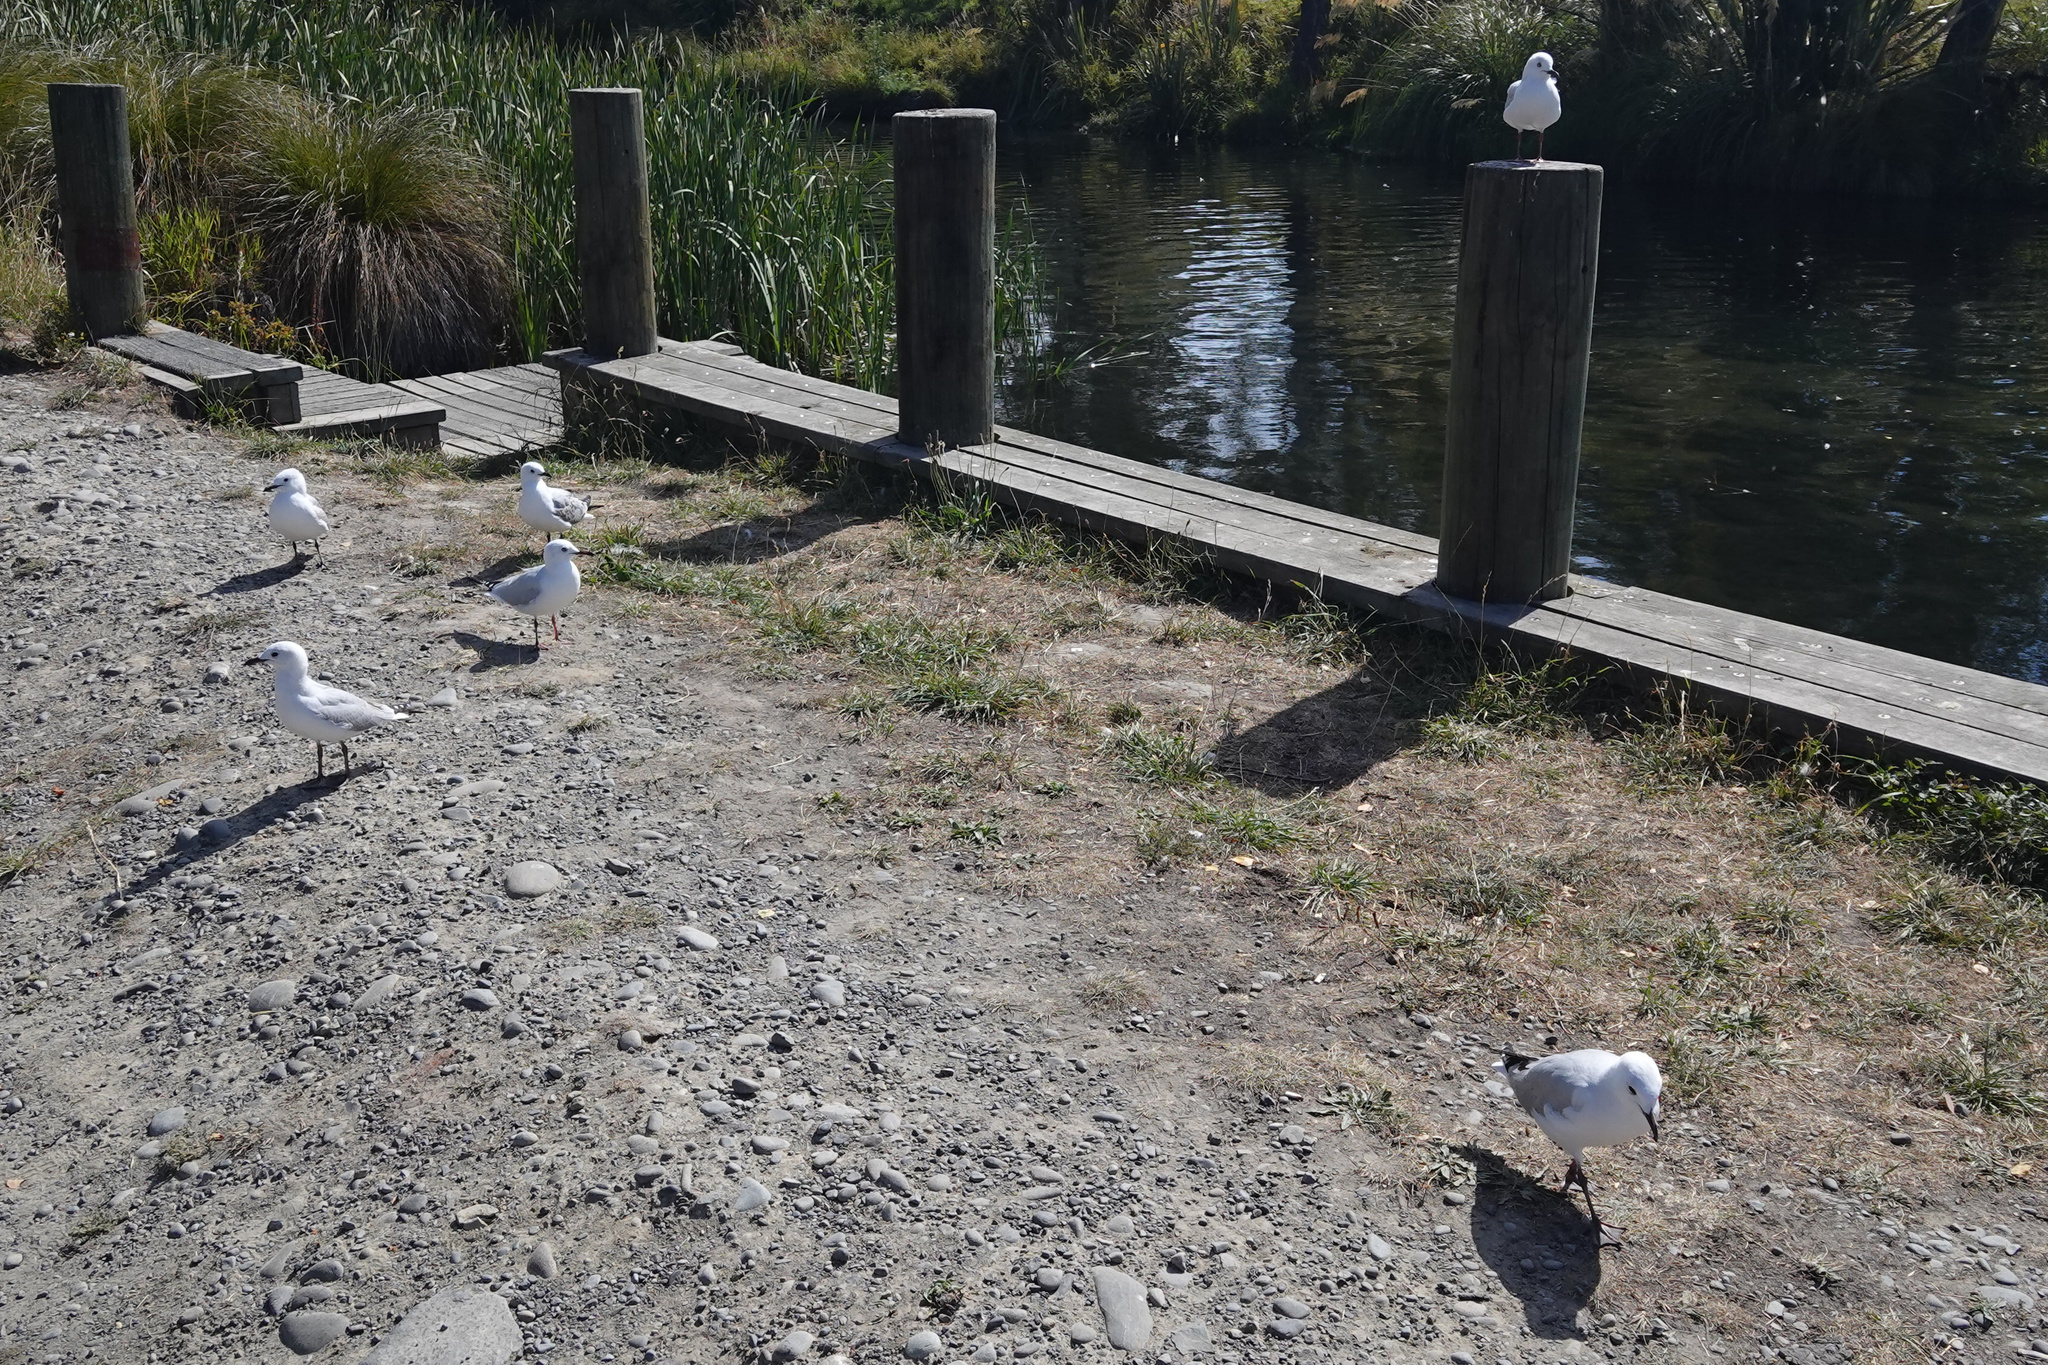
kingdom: Animalia
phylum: Chordata
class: Aves
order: Charadriiformes
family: Laridae
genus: Chroicocephalus
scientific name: Chroicocephalus novaehollandiae
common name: Silver gull
